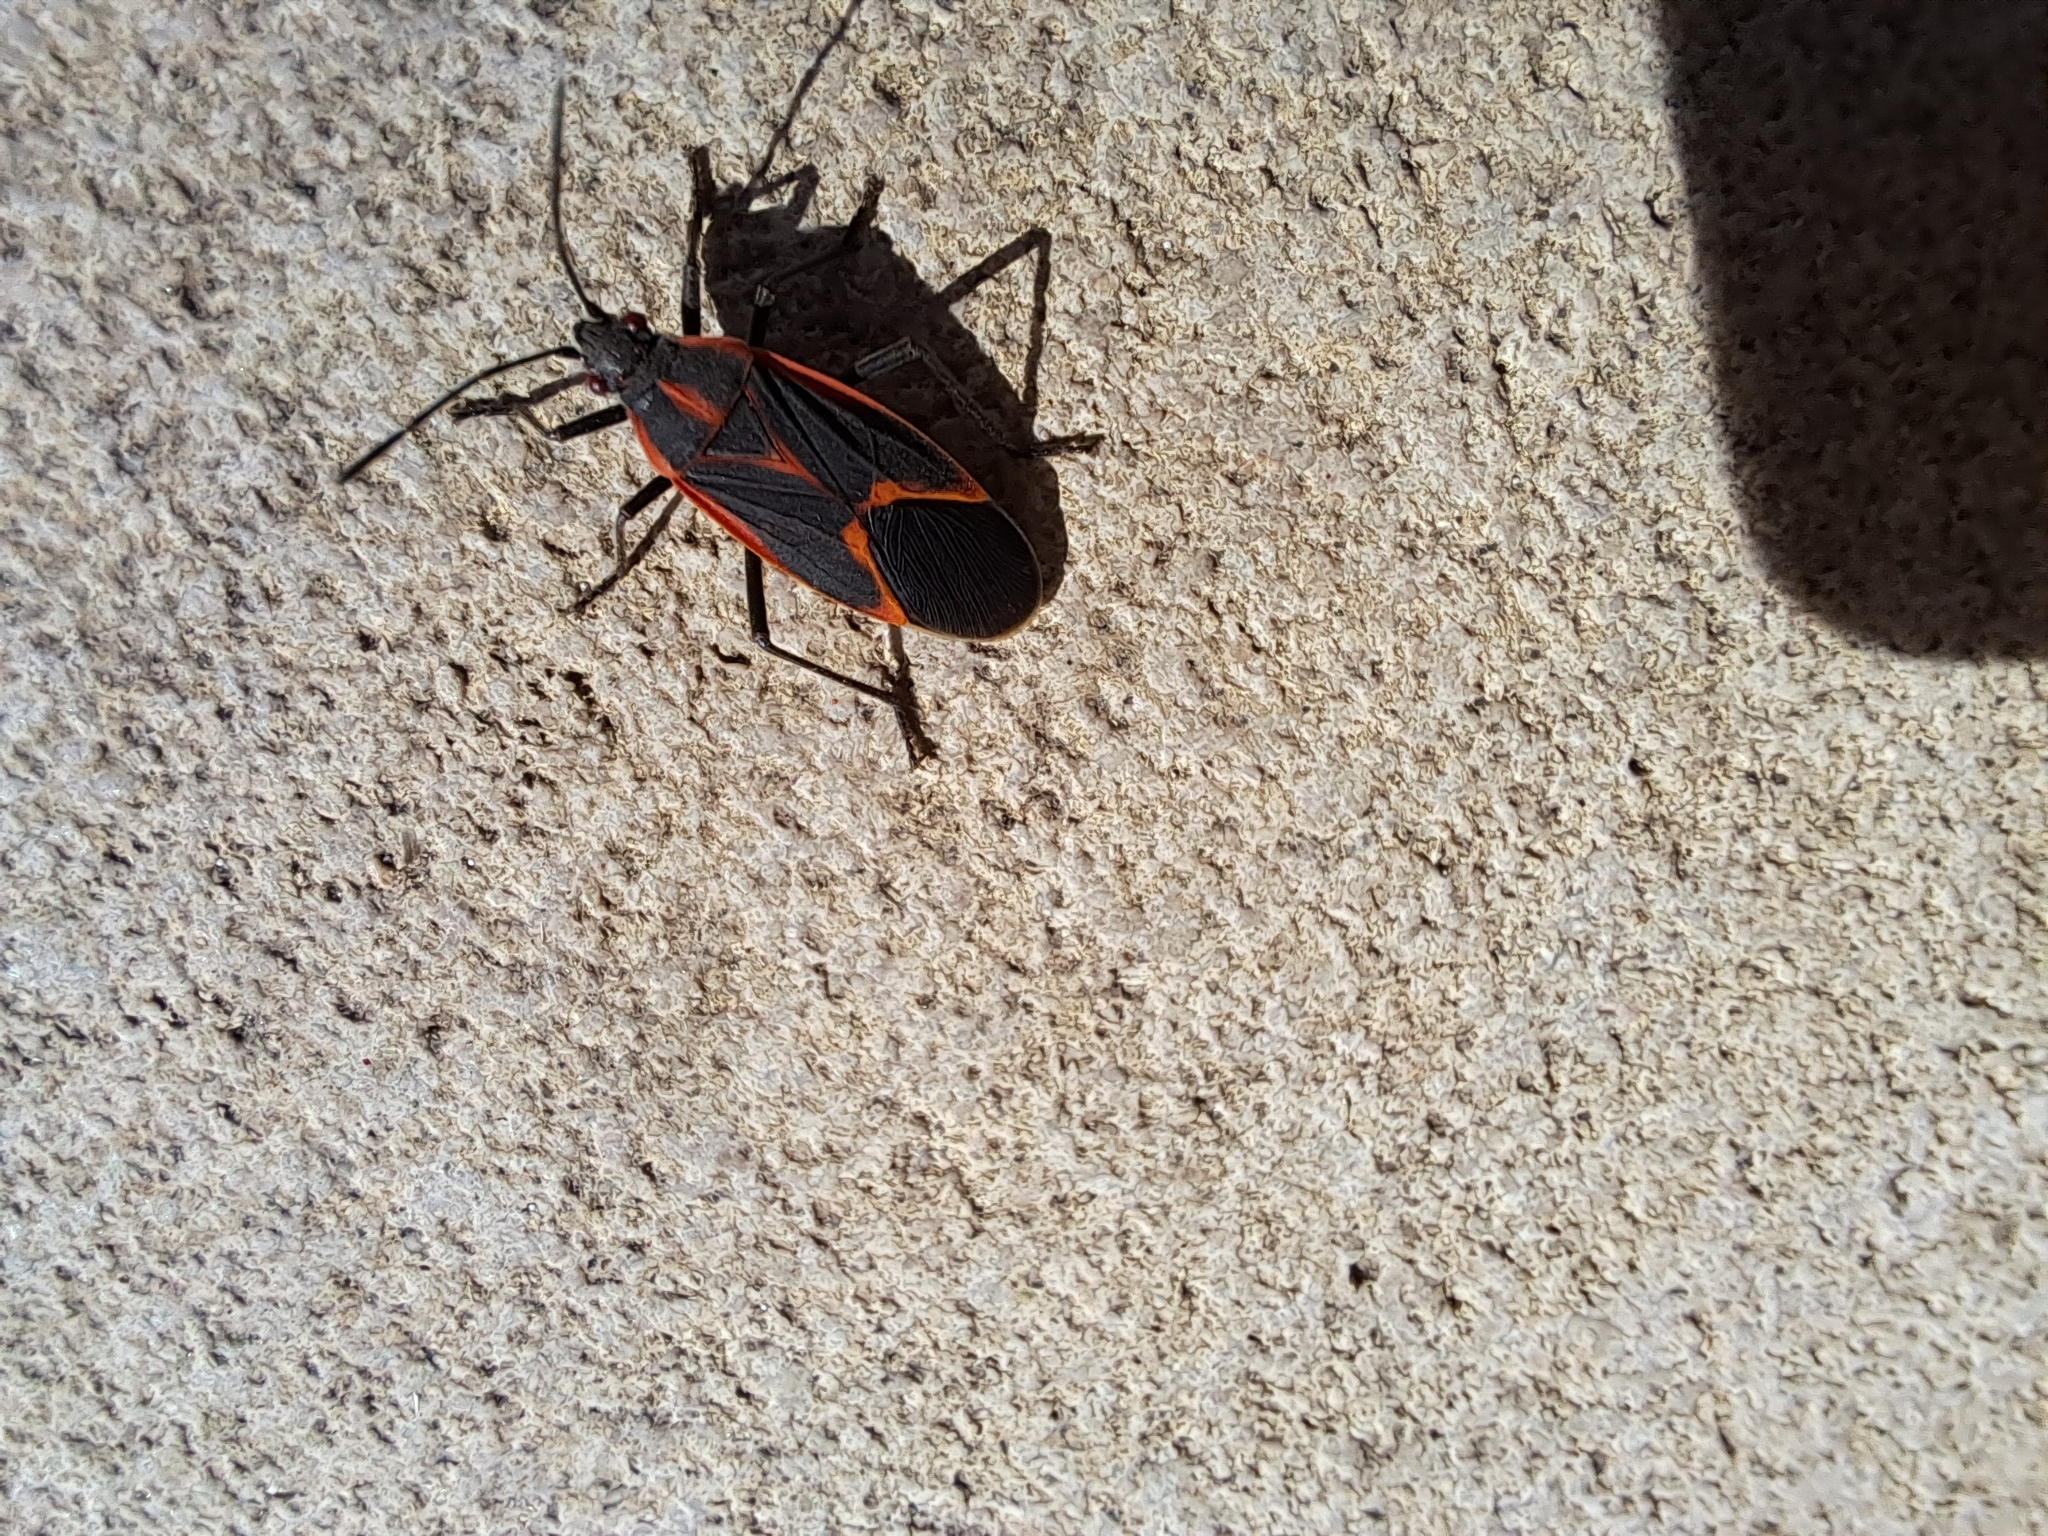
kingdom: Animalia
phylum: Arthropoda
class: Insecta
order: Hemiptera
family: Rhopalidae
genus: Boisea
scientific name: Boisea trivittata
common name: Boxelder bug
